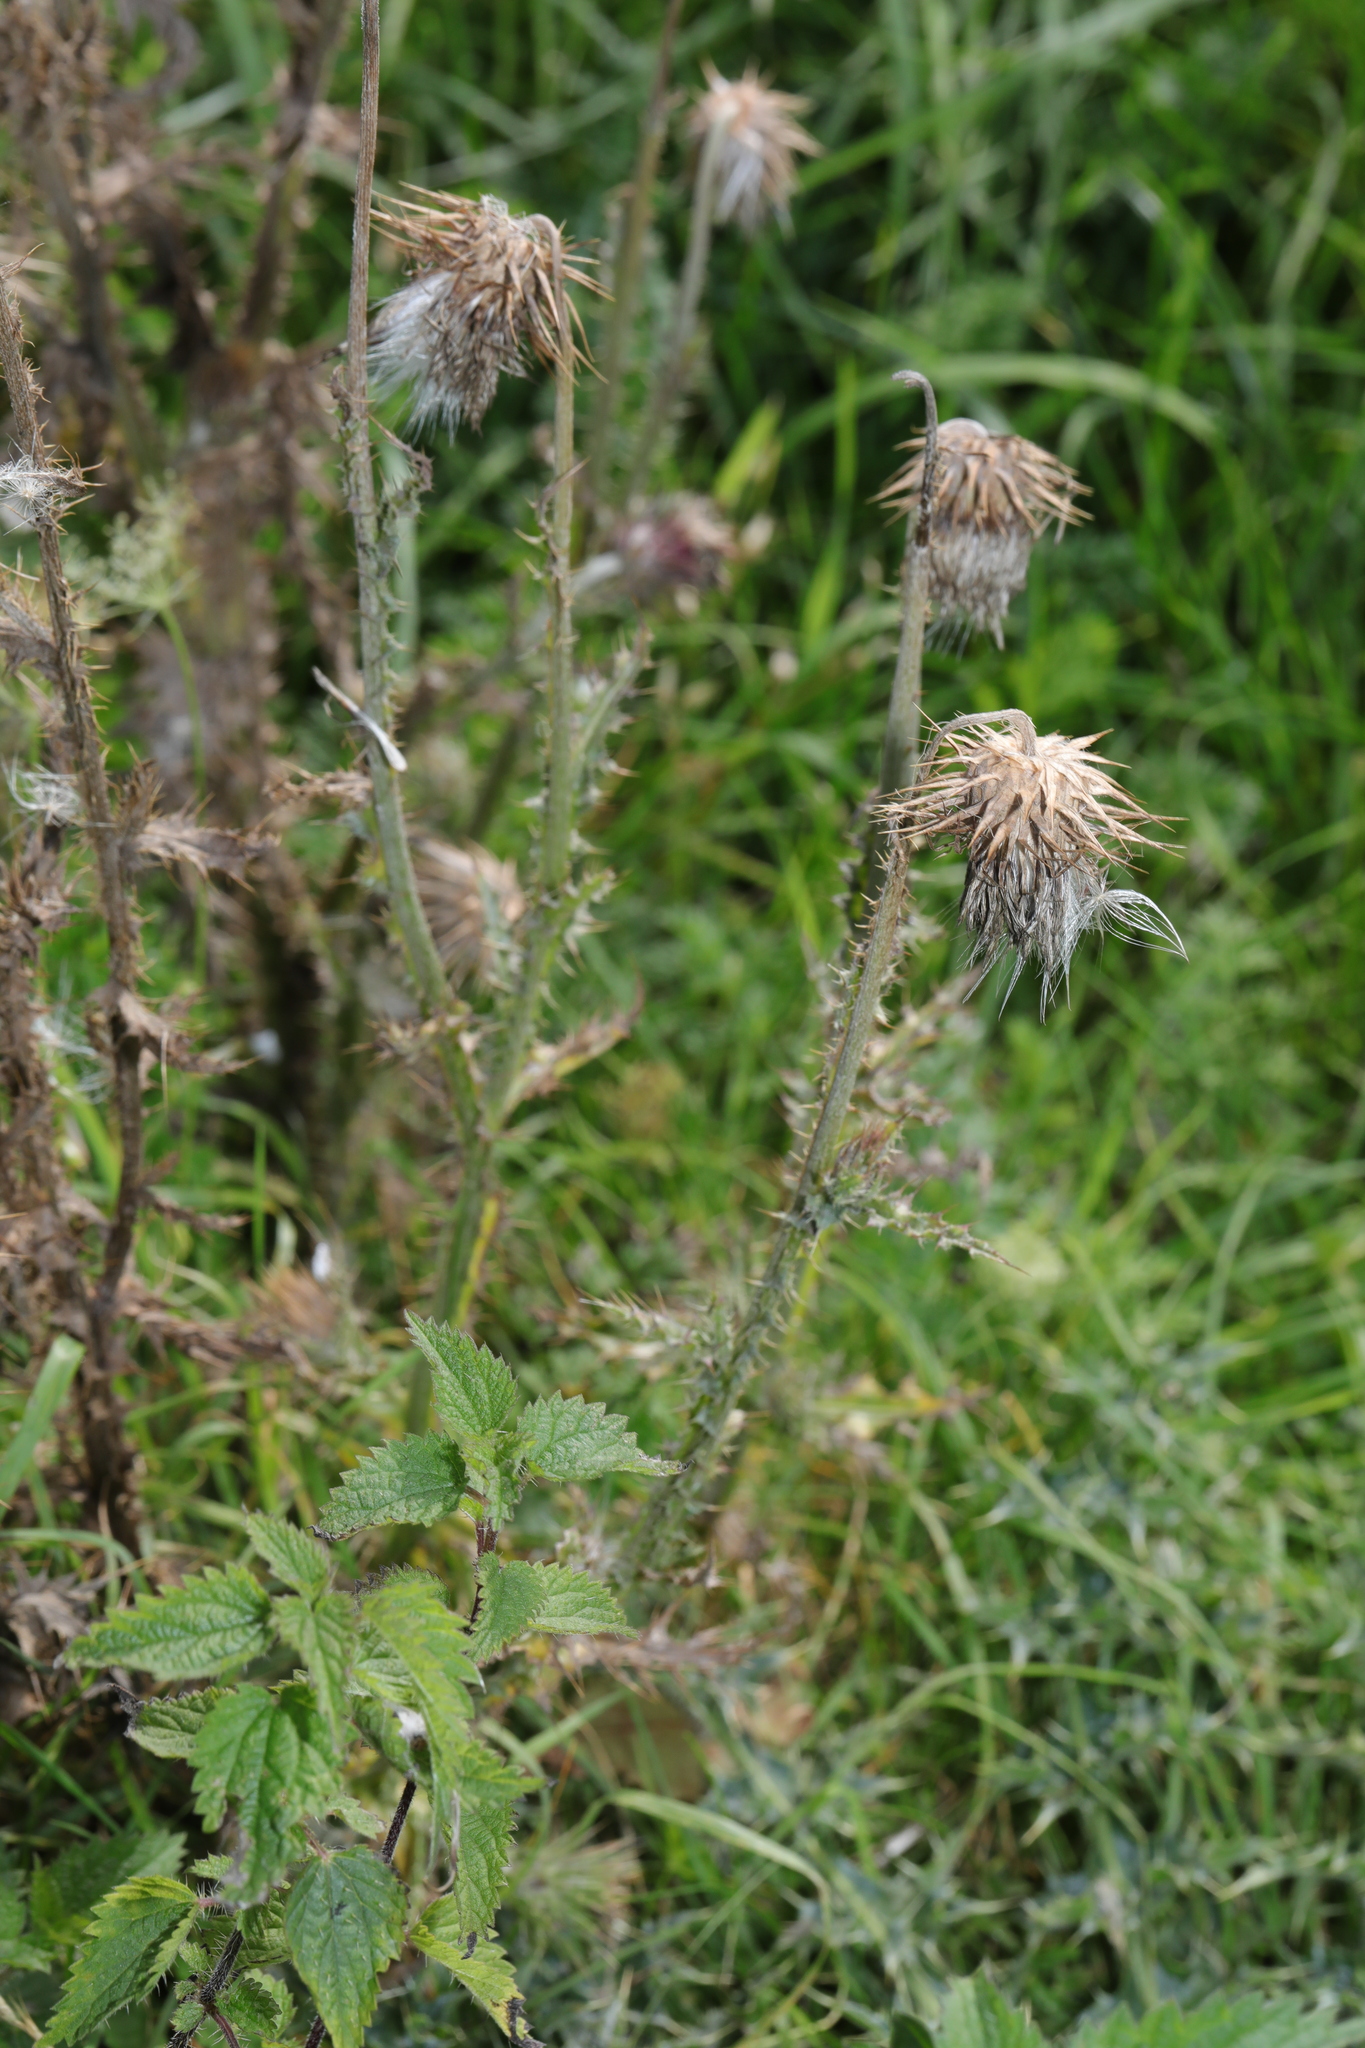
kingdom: Plantae
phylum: Tracheophyta
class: Magnoliopsida
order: Asterales
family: Asteraceae
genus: Carduus
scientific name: Carduus nutans
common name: Musk thistle
